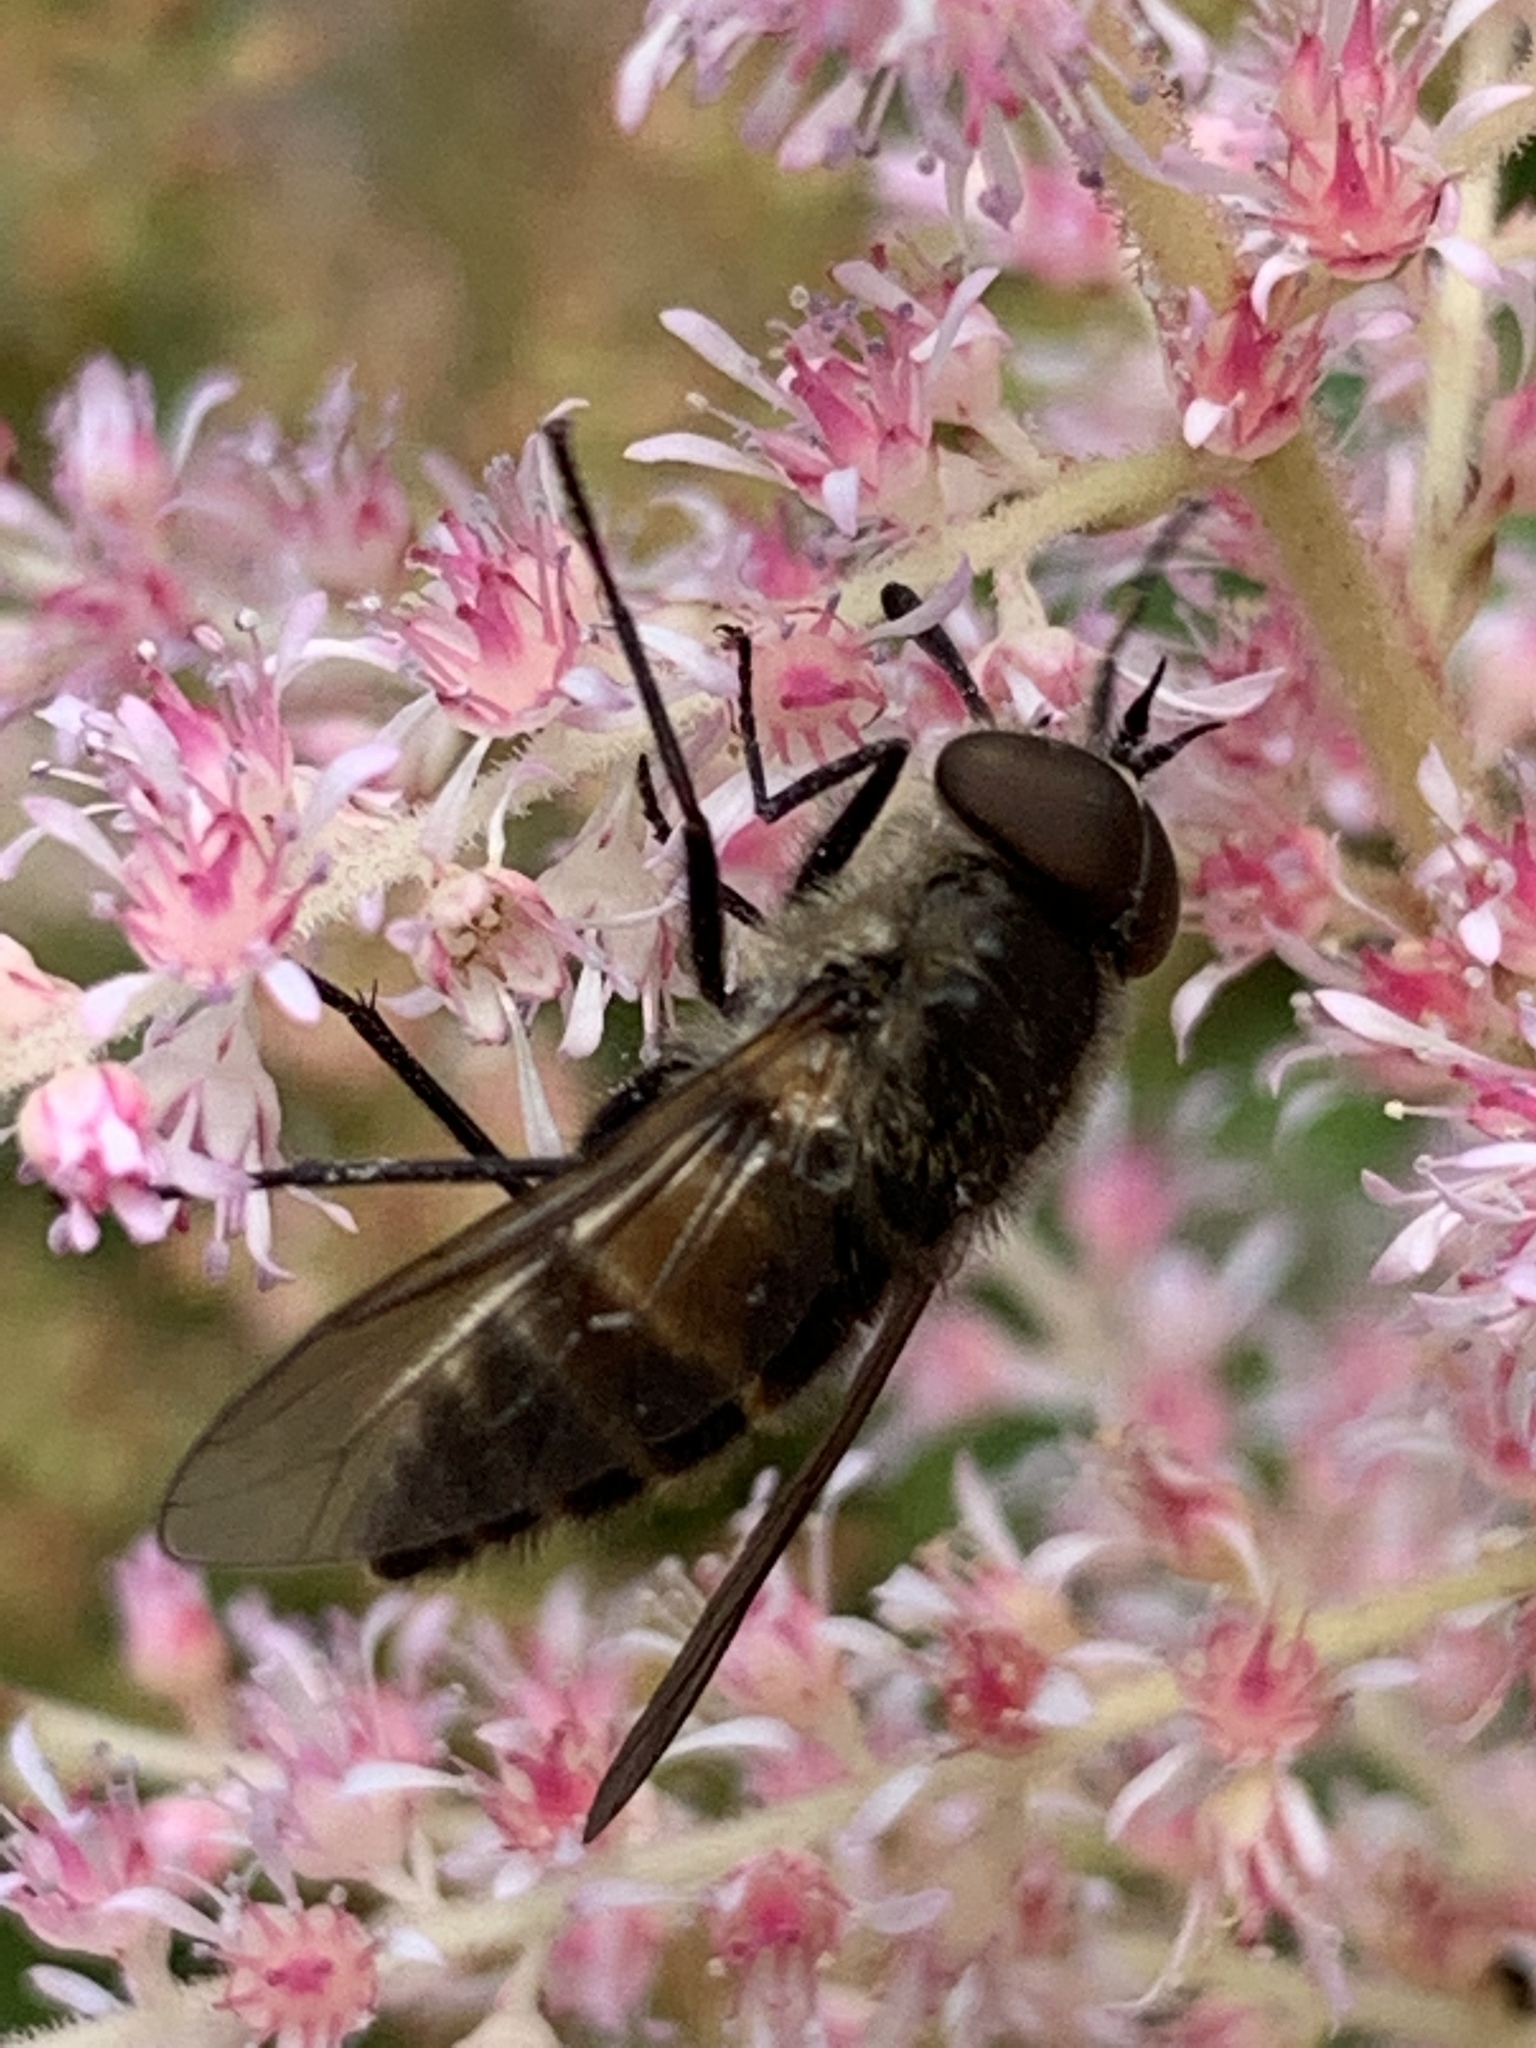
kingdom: Animalia
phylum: Arthropoda
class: Insecta
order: Diptera
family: Tabanidae
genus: Stonemyia
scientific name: Stonemyia tranquilla
